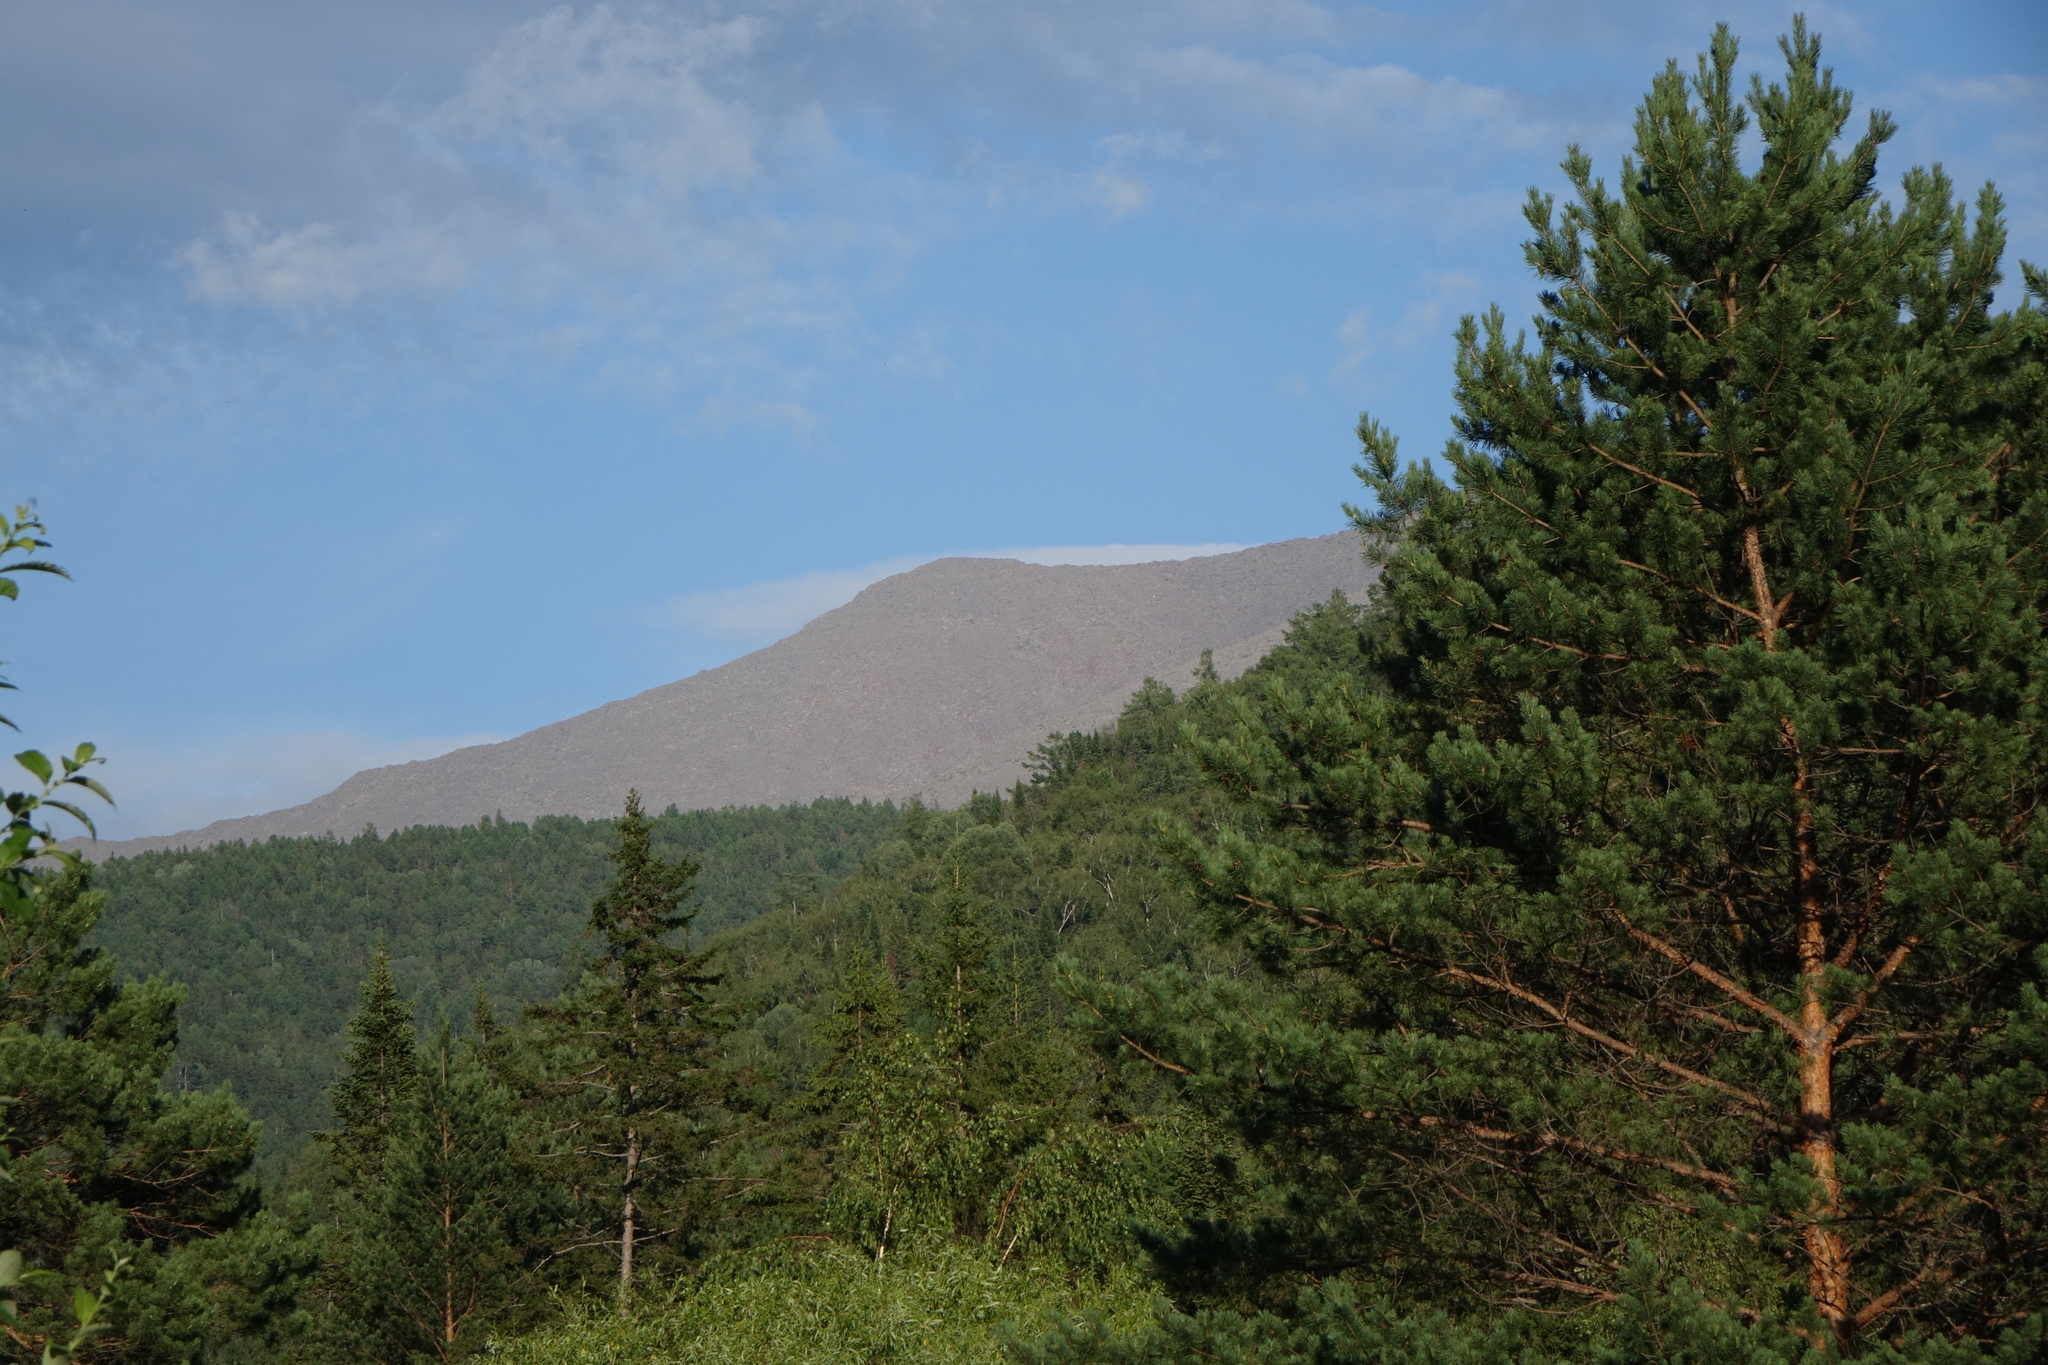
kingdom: Plantae
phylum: Tracheophyta
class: Pinopsida
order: Pinales
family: Pinaceae
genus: Pinus
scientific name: Pinus sylvestris
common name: Scots pine
